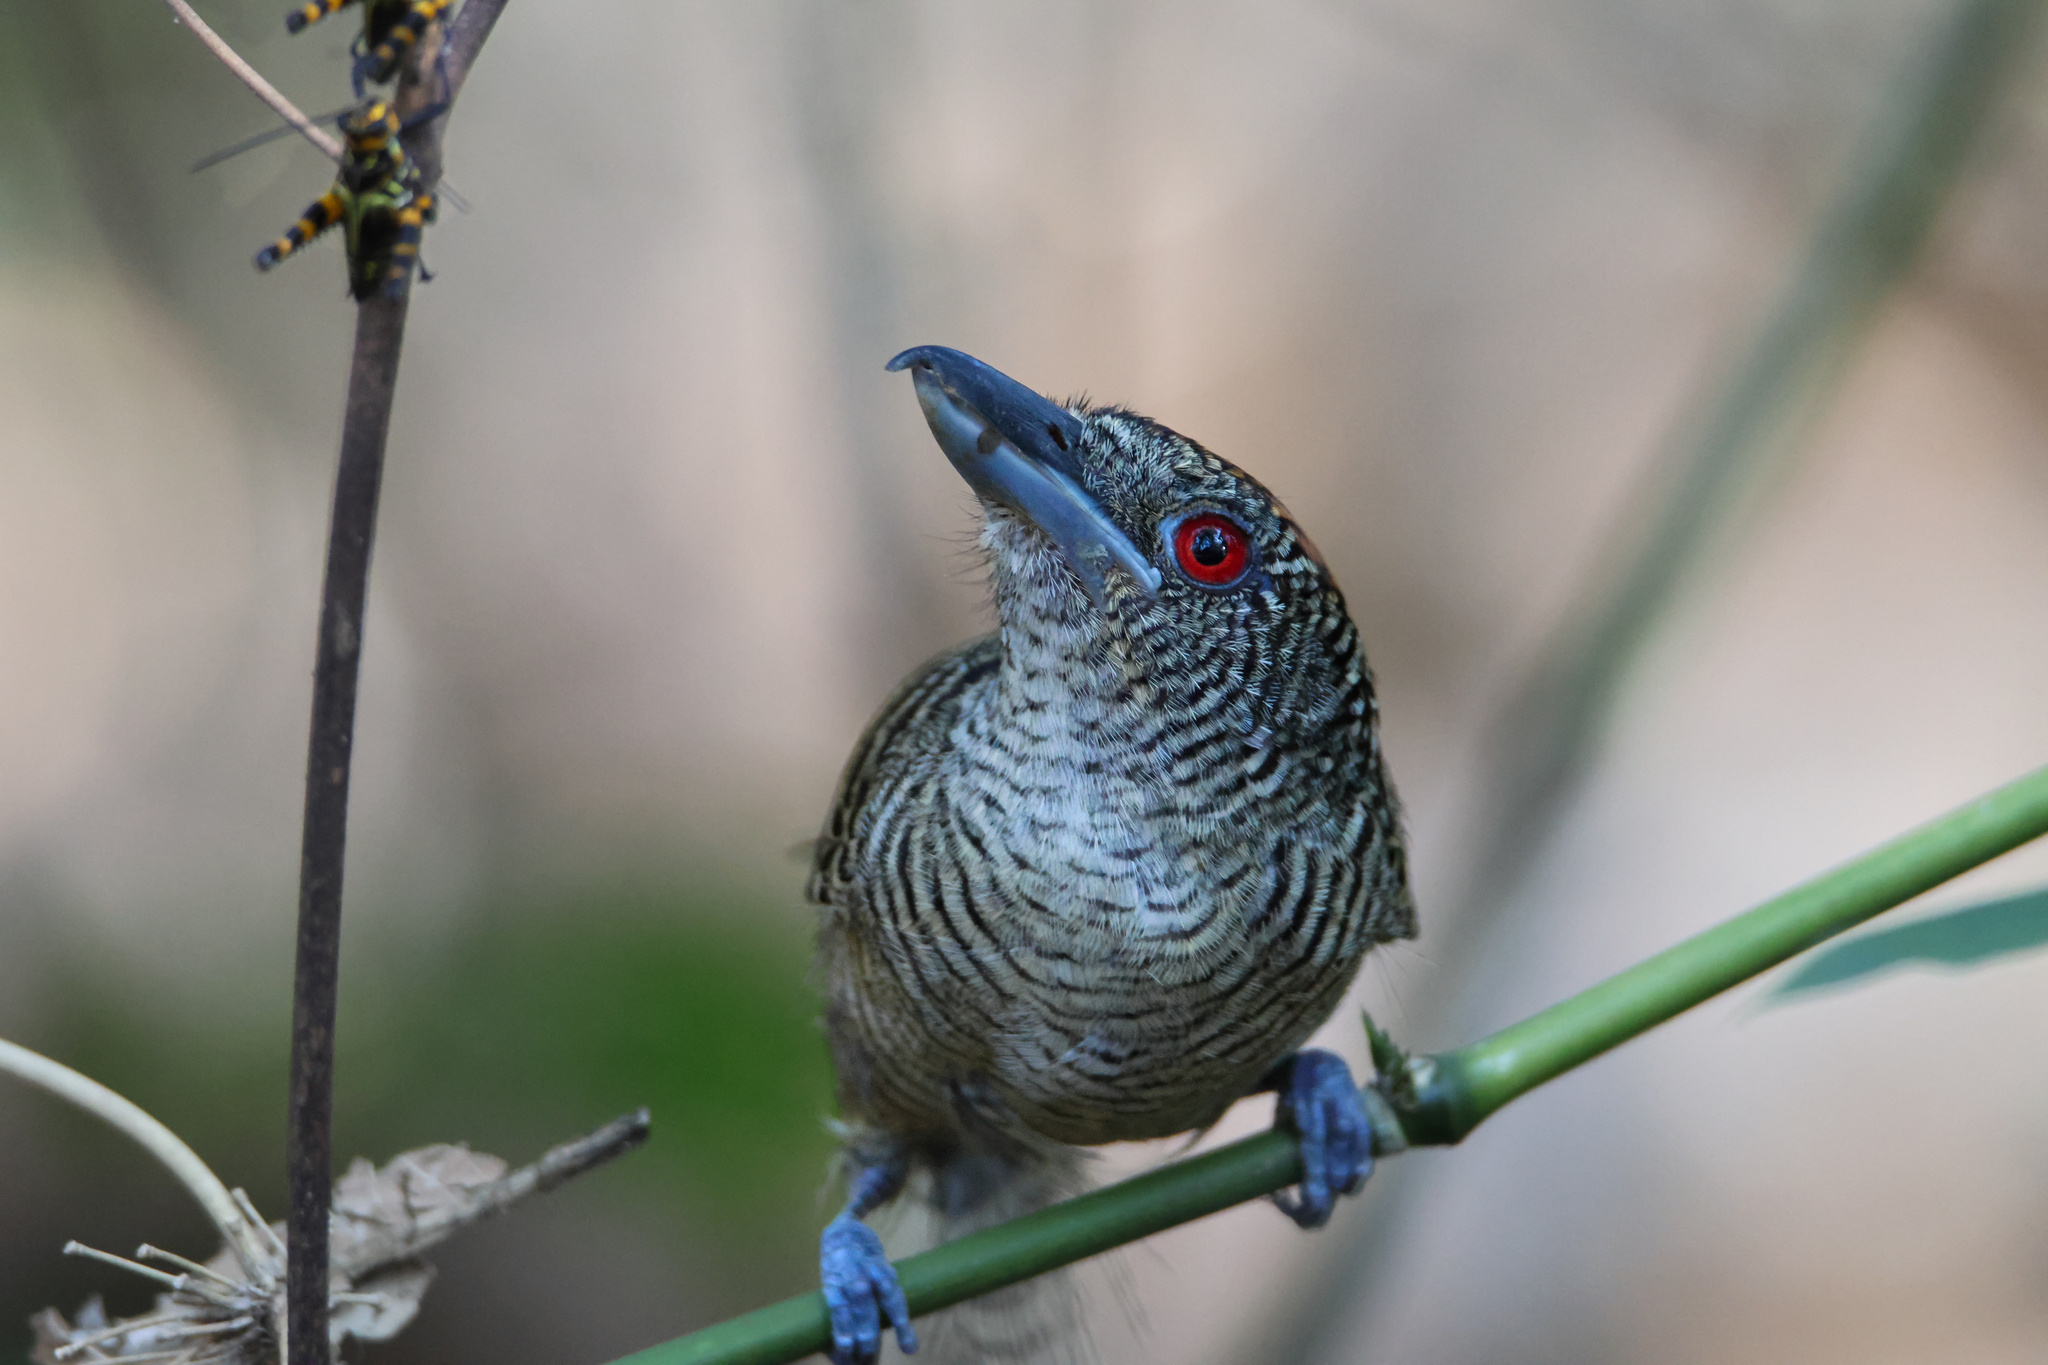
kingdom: Animalia
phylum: Chordata
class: Aves
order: Passeriformes
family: Thamnophilidae
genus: Cymbilaimus
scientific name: Cymbilaimus lineatus
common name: Fasciated antshrike
